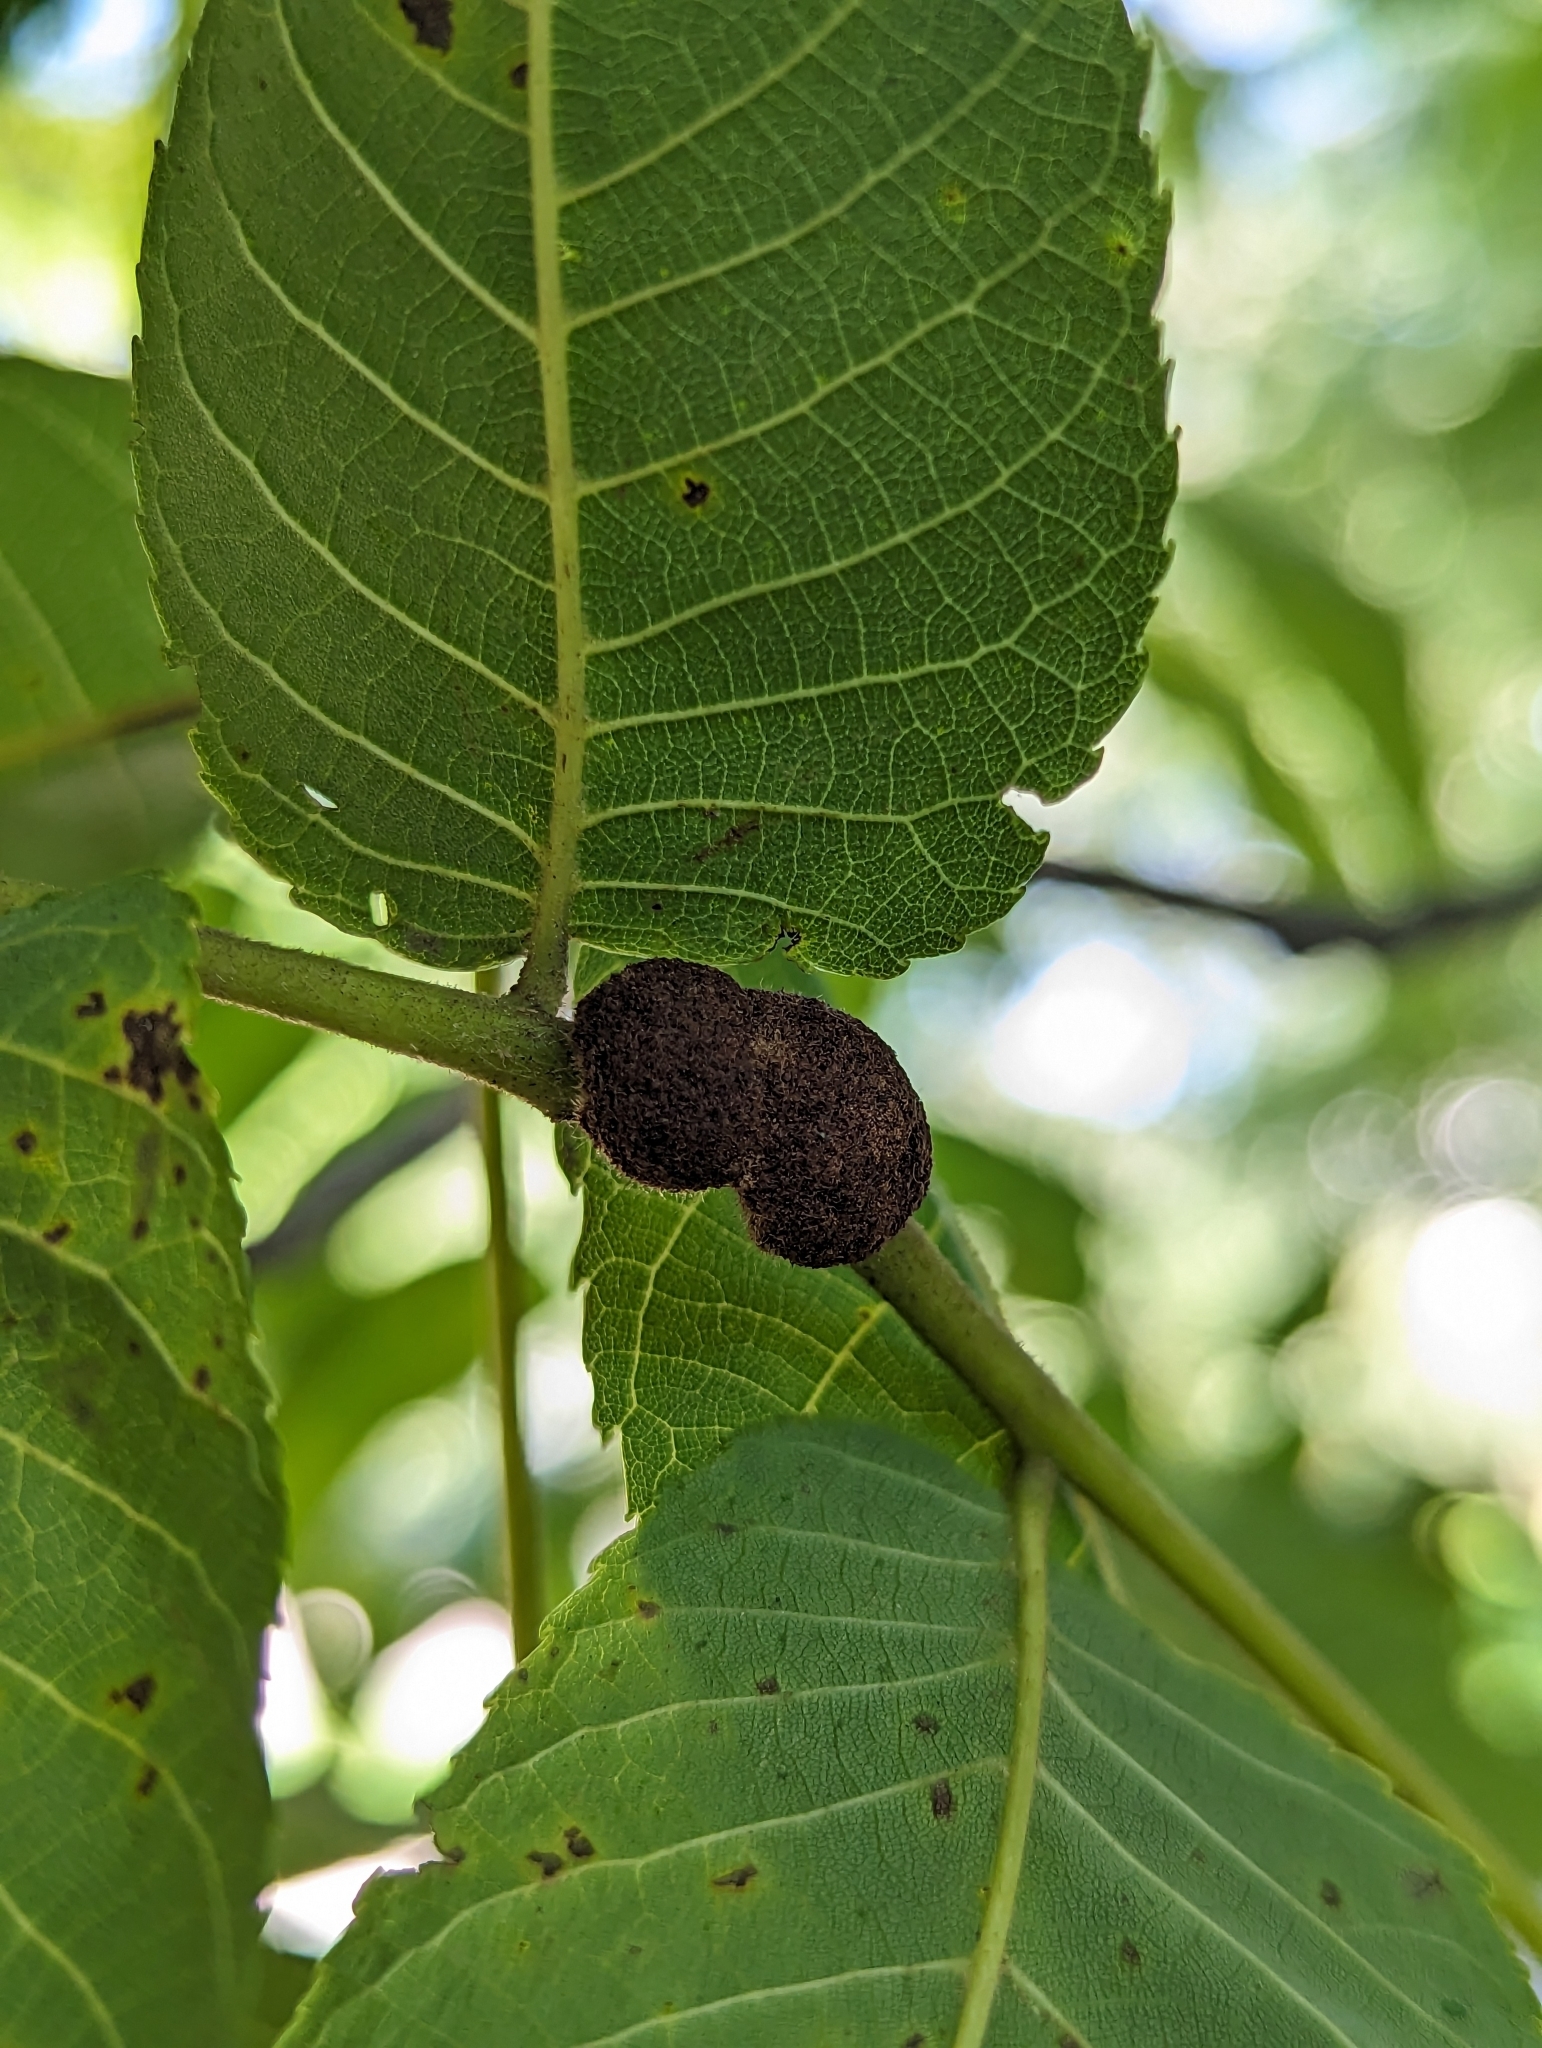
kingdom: Animalia
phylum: Arthropoda
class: Arachnida
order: Trombidiformes
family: Eriophyidae
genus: Aceria
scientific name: Aceria
